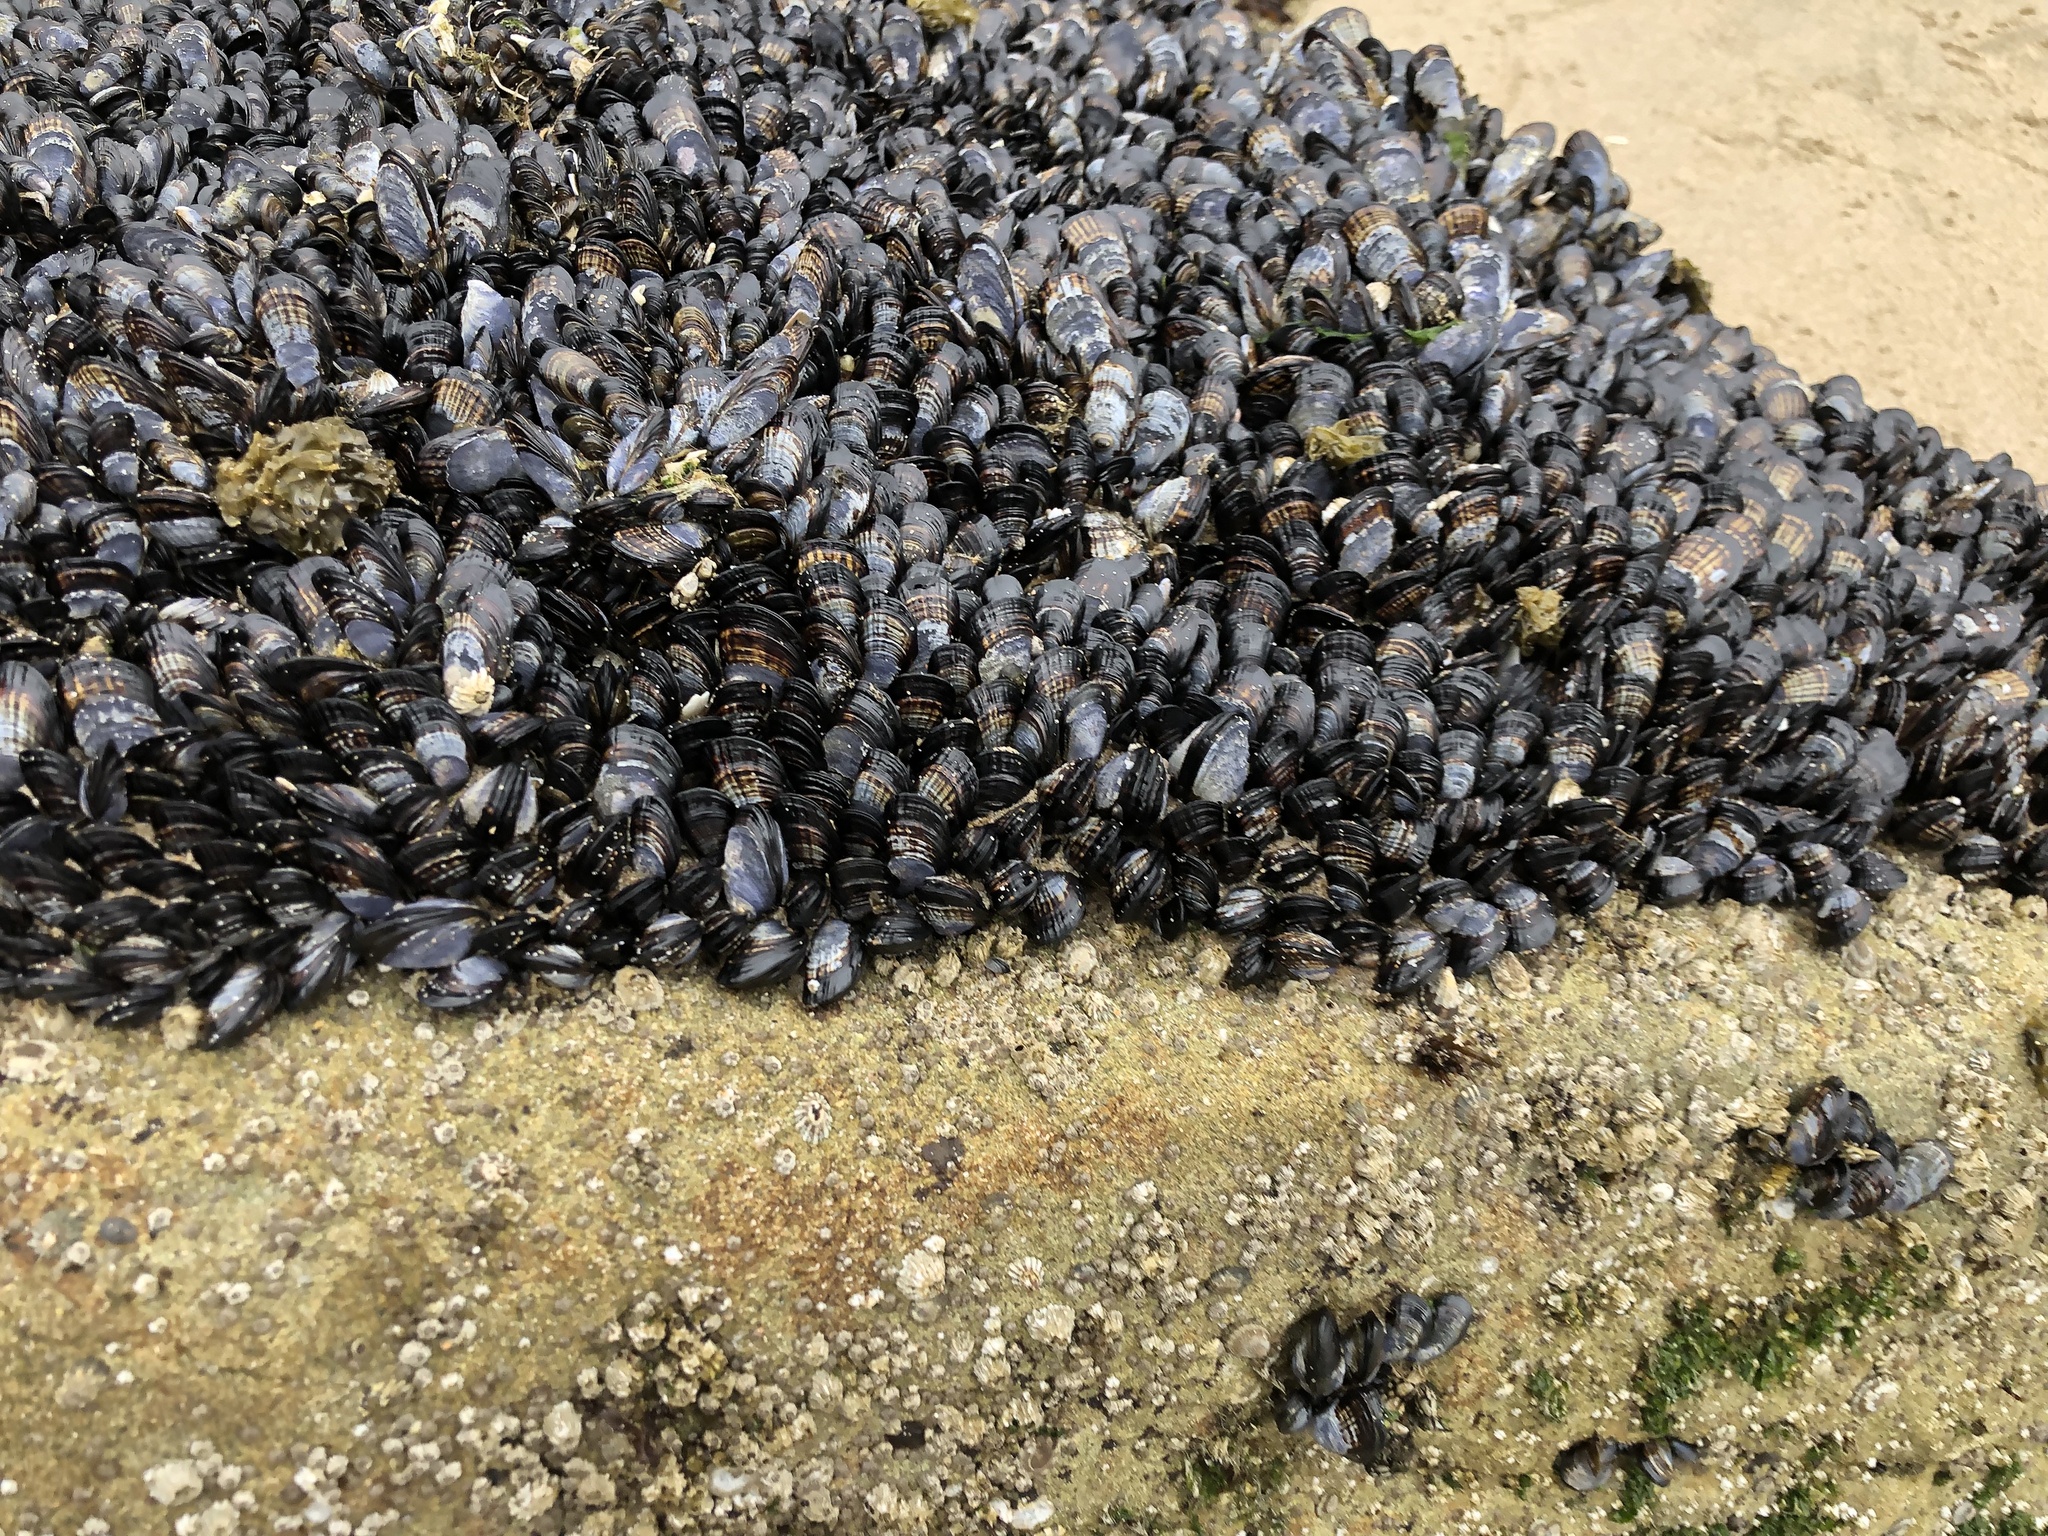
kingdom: Animalia
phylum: Mollusca
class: Bivalvia
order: Mytilida
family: Mytilidae
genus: Mytilus
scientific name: Mytilus californianus
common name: California mussel
